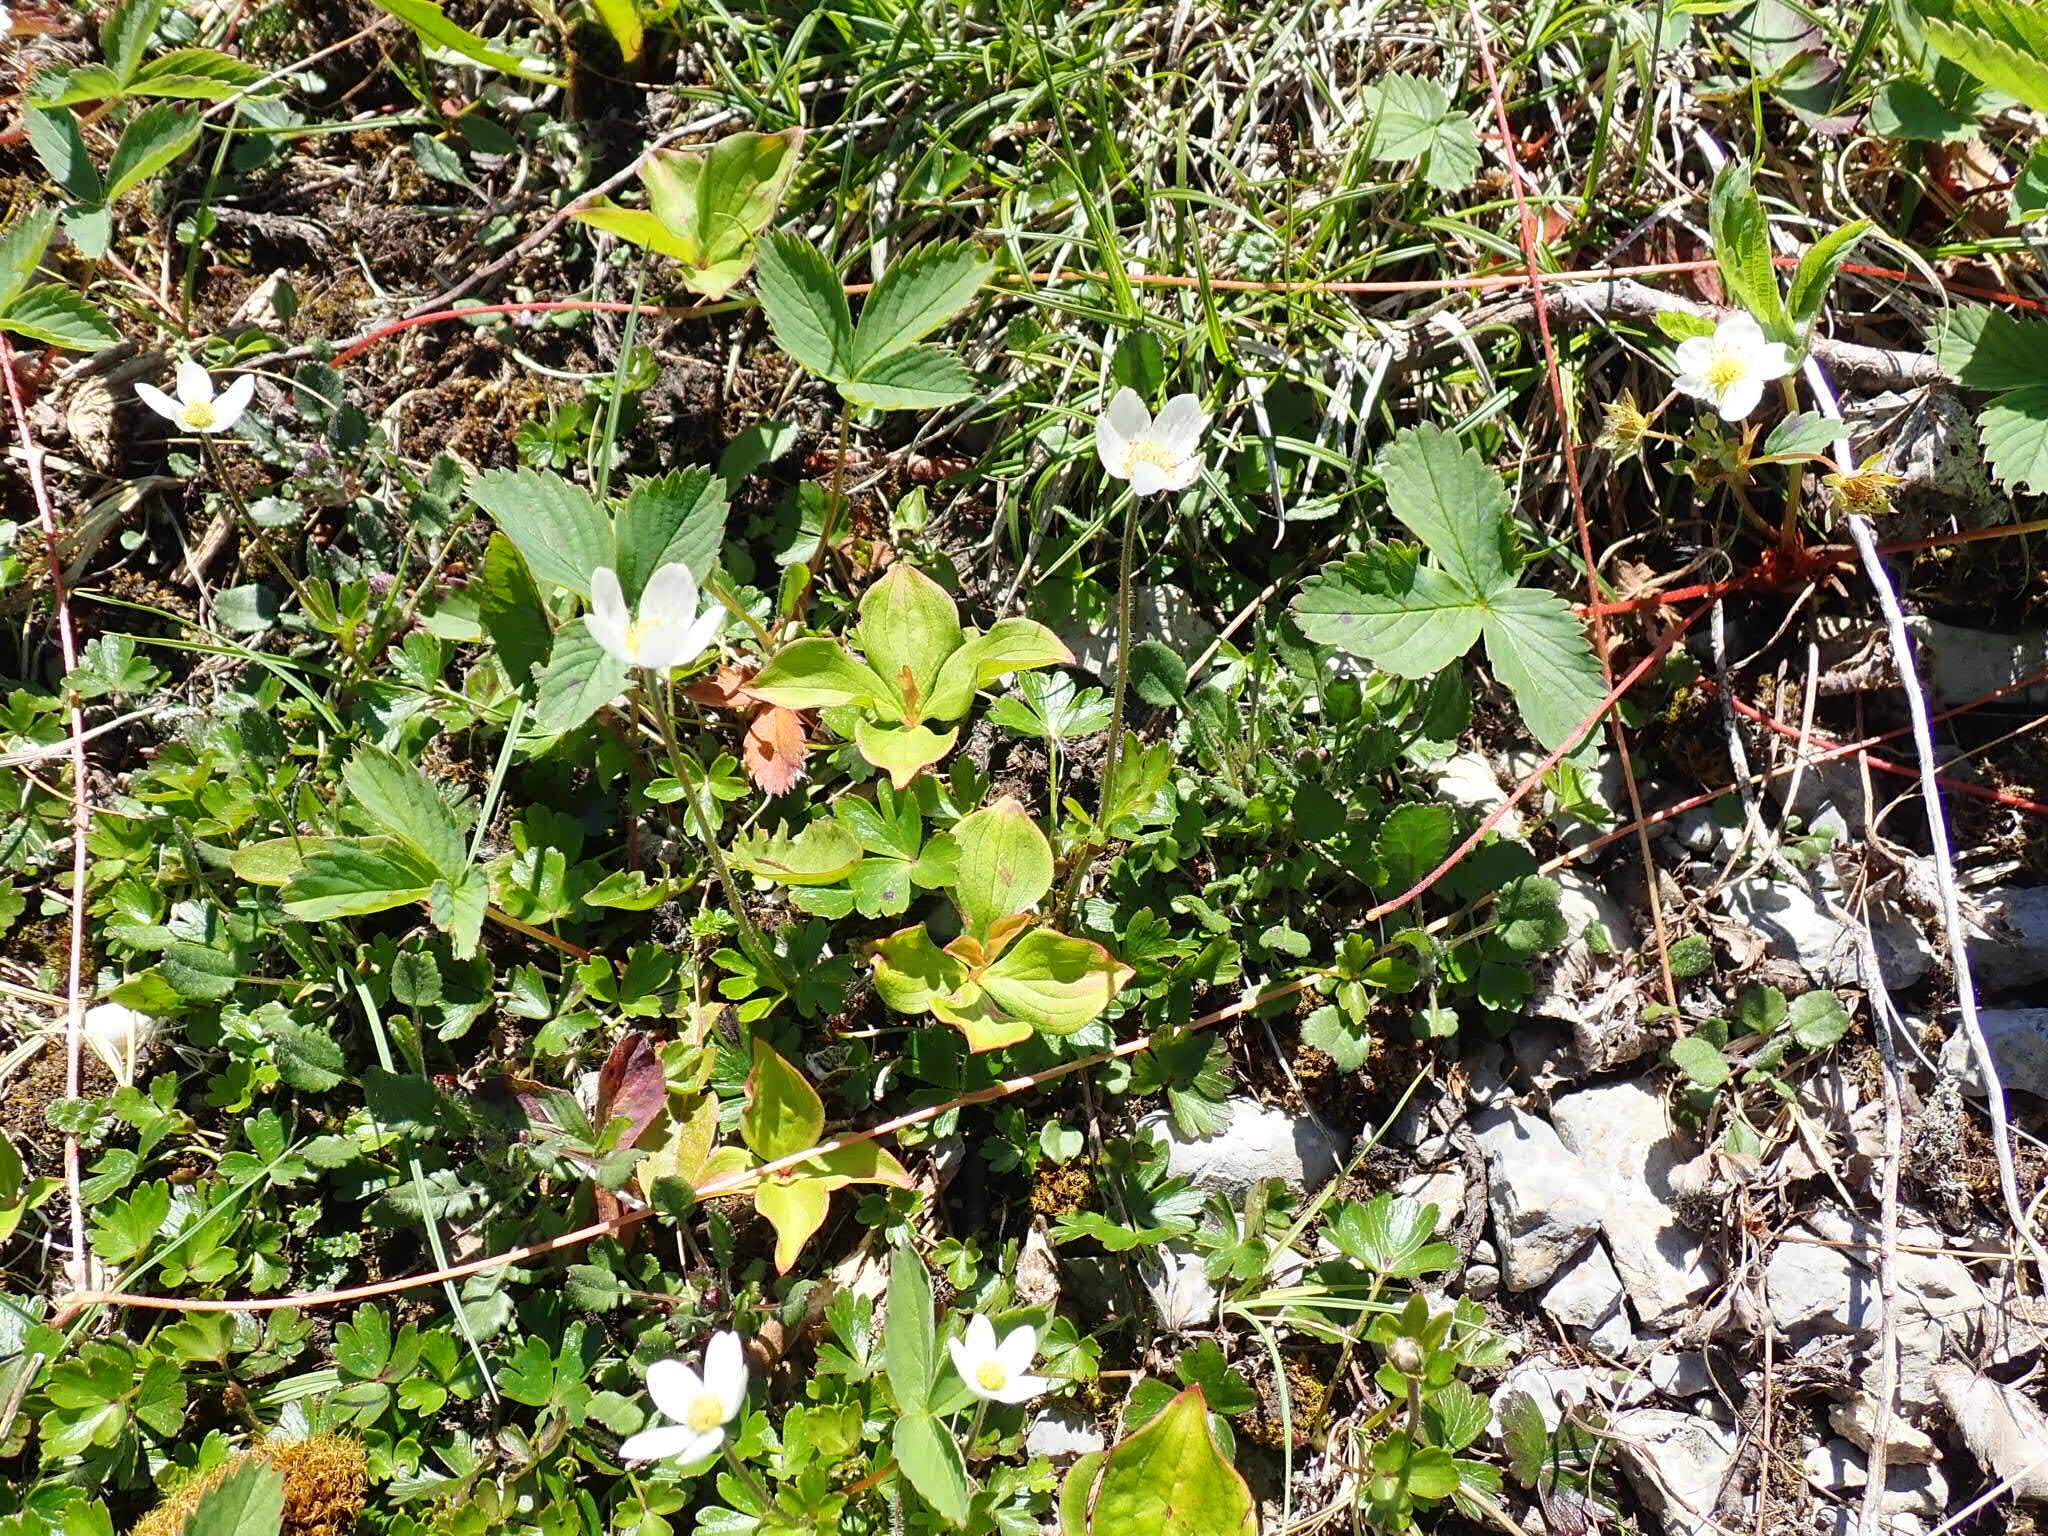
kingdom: Plantae
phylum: Tracheophyta
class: Magnoliopsida
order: Ranunculales
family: Ranunculaceae
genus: Anemone
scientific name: Anemone parviflora
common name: Northern anemone
